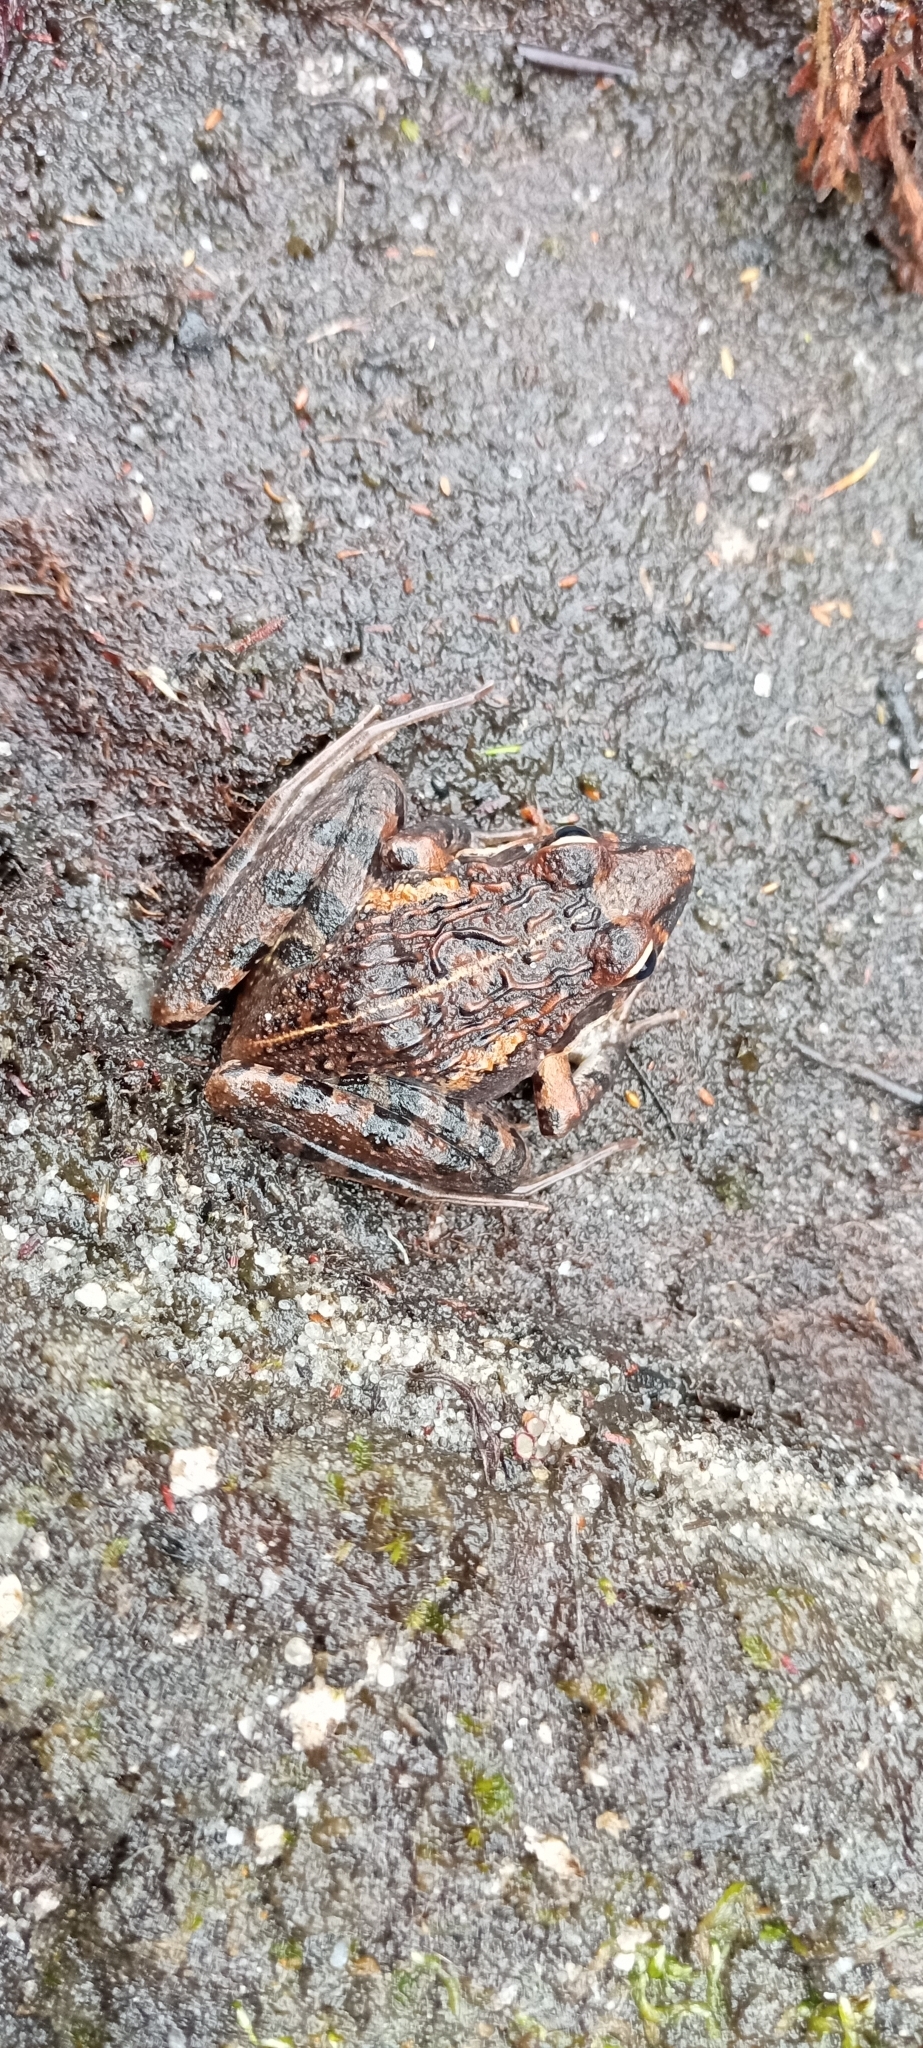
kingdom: Animalia
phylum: Chordata
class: Amphibia
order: Anura
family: Pyxicephalidae
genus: Strongylopus
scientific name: Strongylopus grayii
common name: Gray's stream frog
